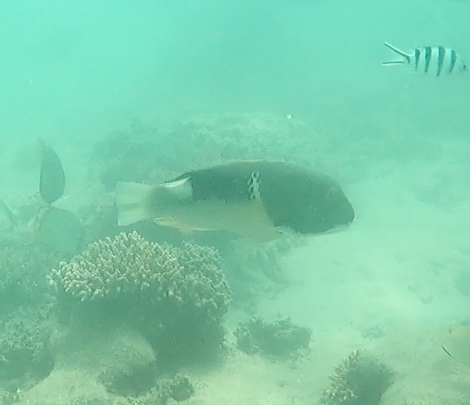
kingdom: Animalia
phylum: Chordata
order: Perciformes
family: Labridae
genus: Choerodon
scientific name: Choerodon anchorago
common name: Anchor tuskfish
